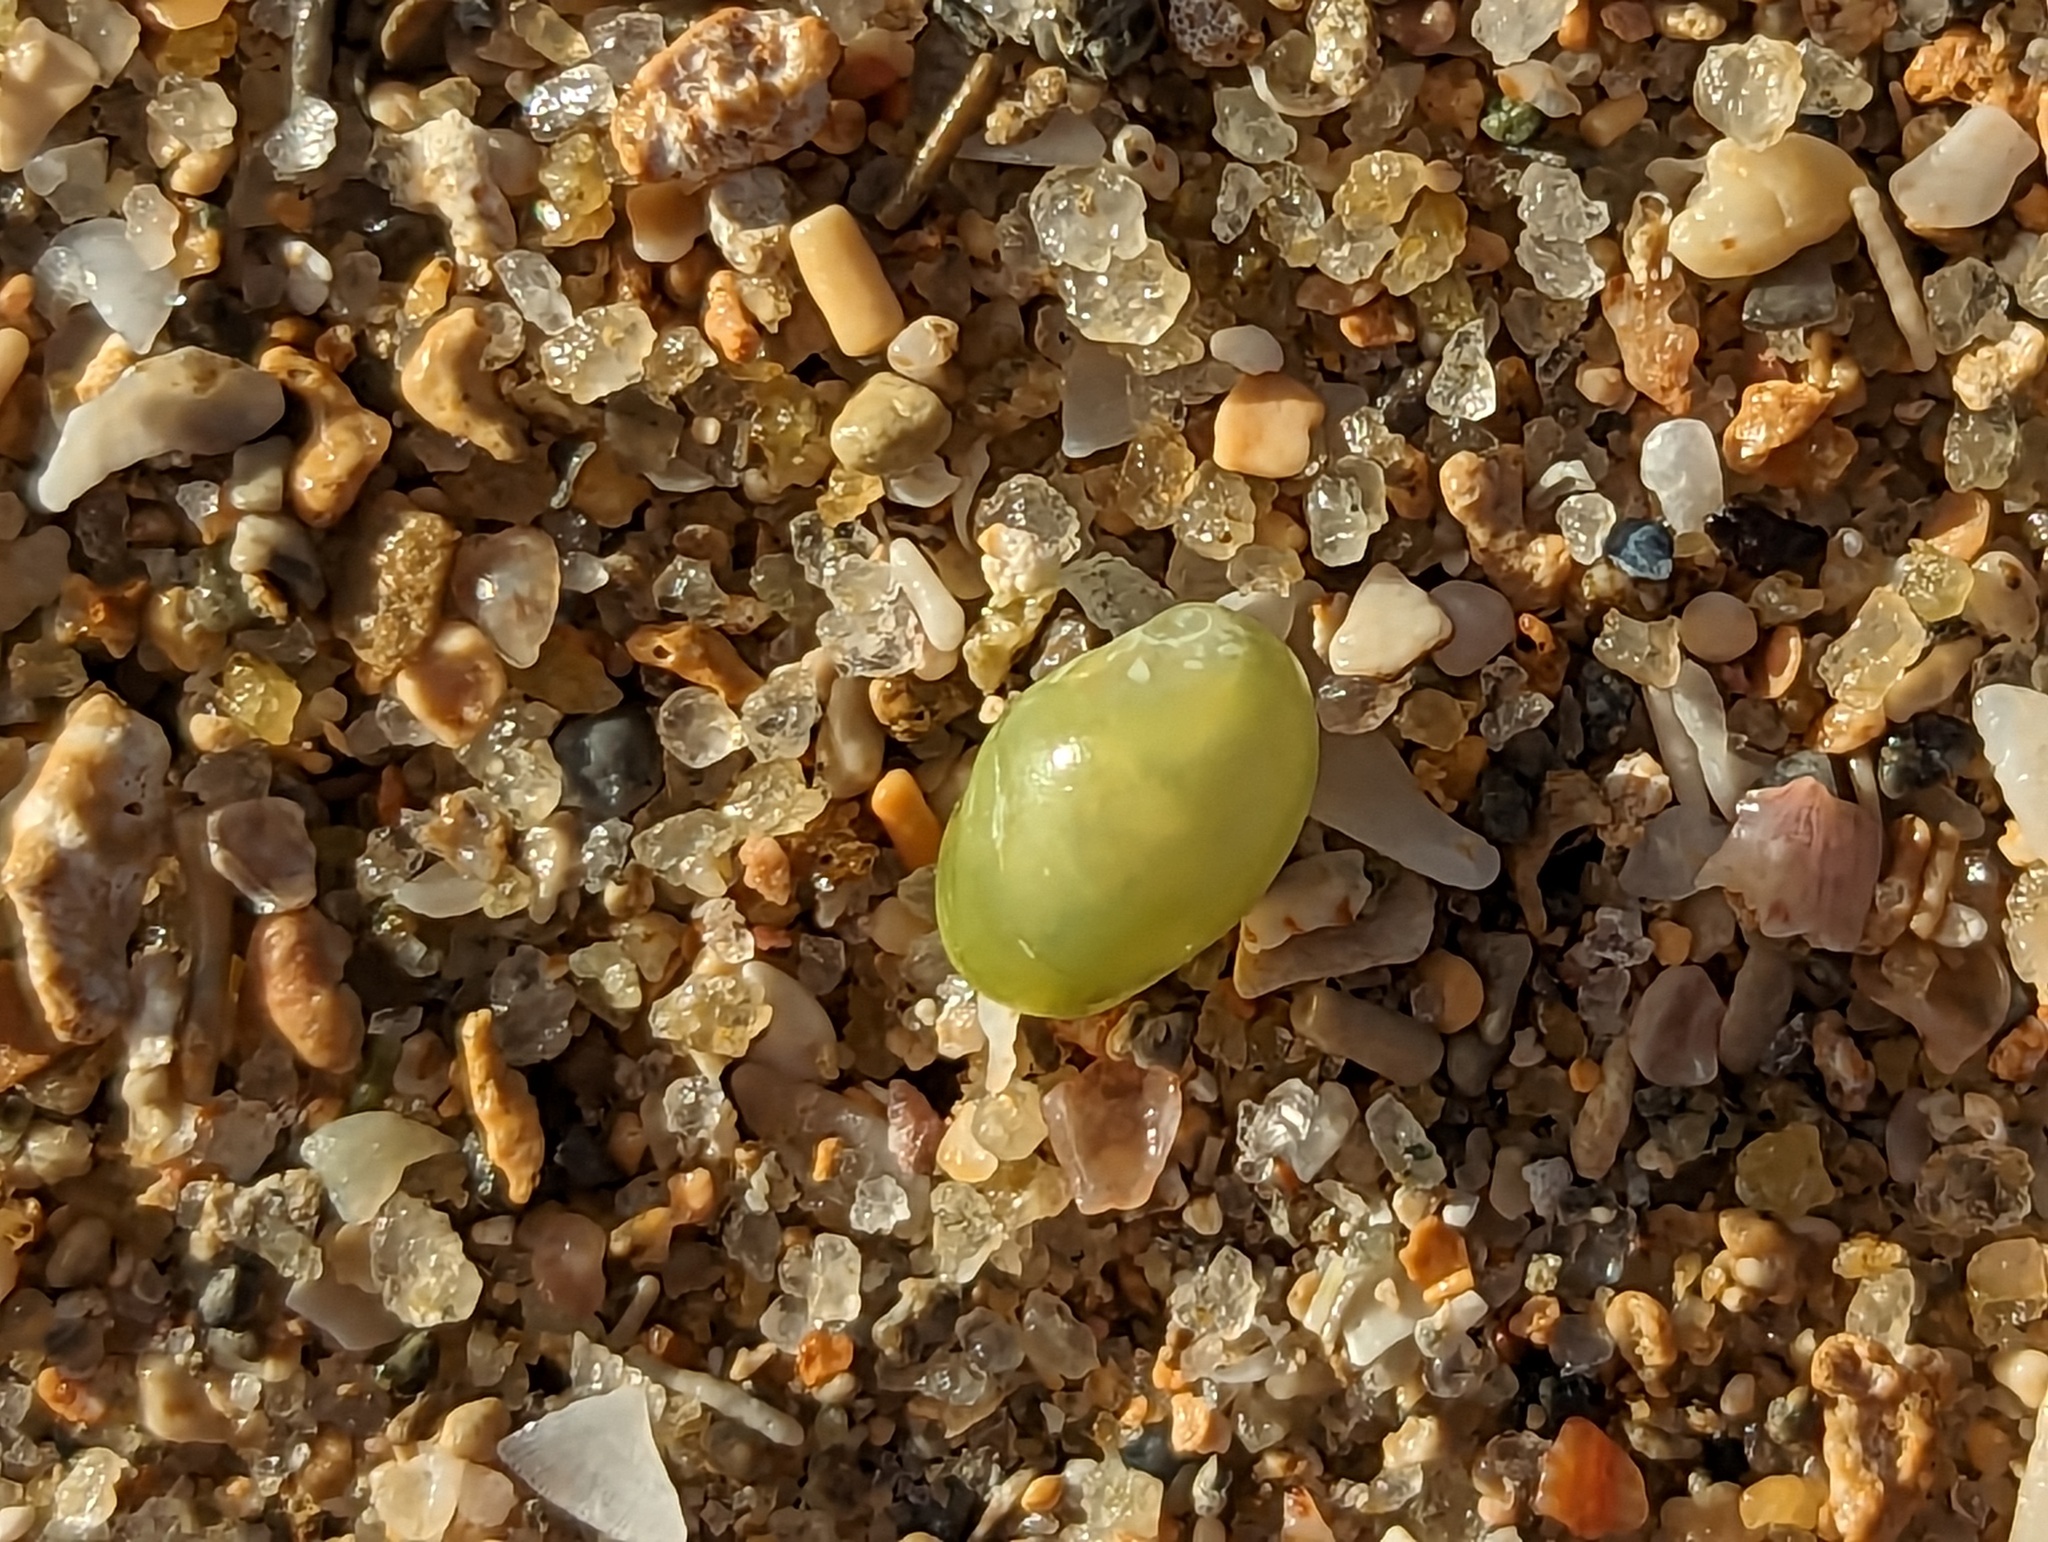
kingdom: Animalia
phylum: Mollusca
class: Gastropoda
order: Cycloneritida
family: Neritidae
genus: Smaragdia
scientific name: Smaragdia viridis
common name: Emerald nerite
